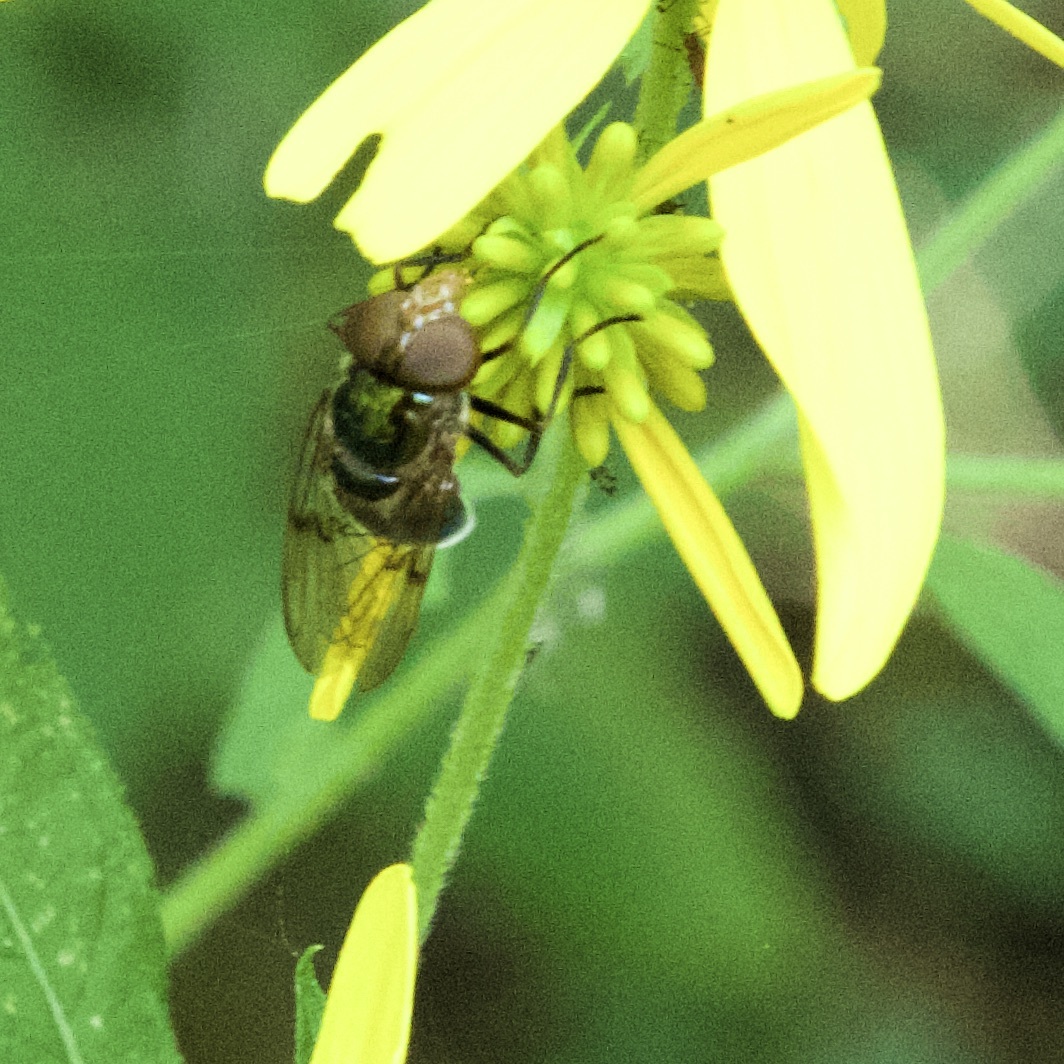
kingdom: Animalia
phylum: Arthropoda
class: Insecta
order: Diptera
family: Syrphidae
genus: Copestylum
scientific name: Copestylum vesicularium
